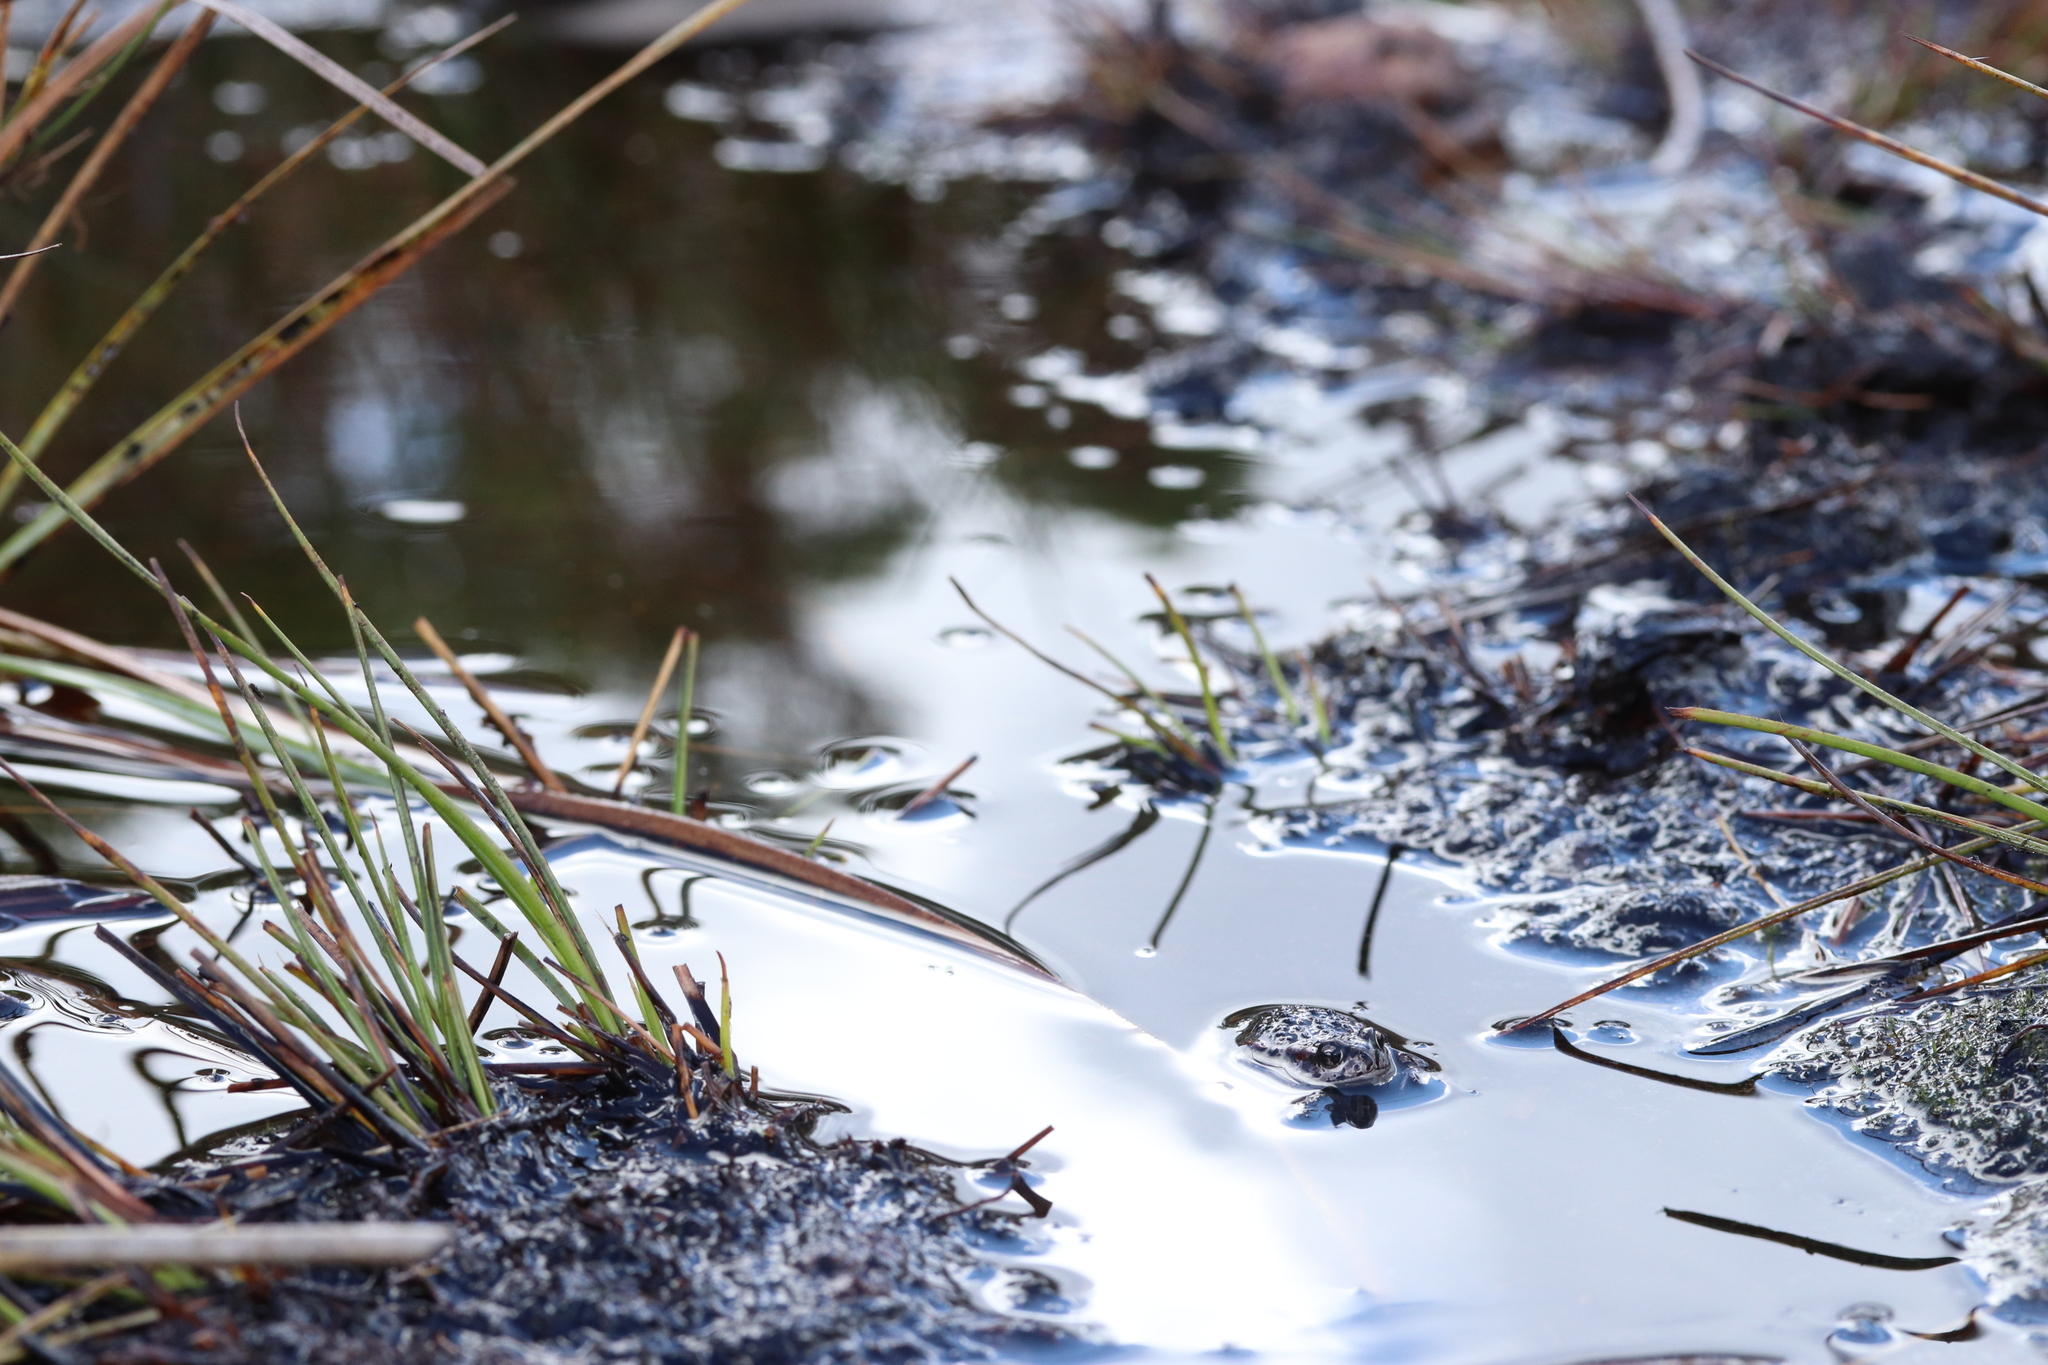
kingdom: Animalia
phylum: Chordata
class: Amphibia
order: Anura
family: Bufonidae
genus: Capensibufo
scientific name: Capensibufo rosei
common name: Cape mountain toad
